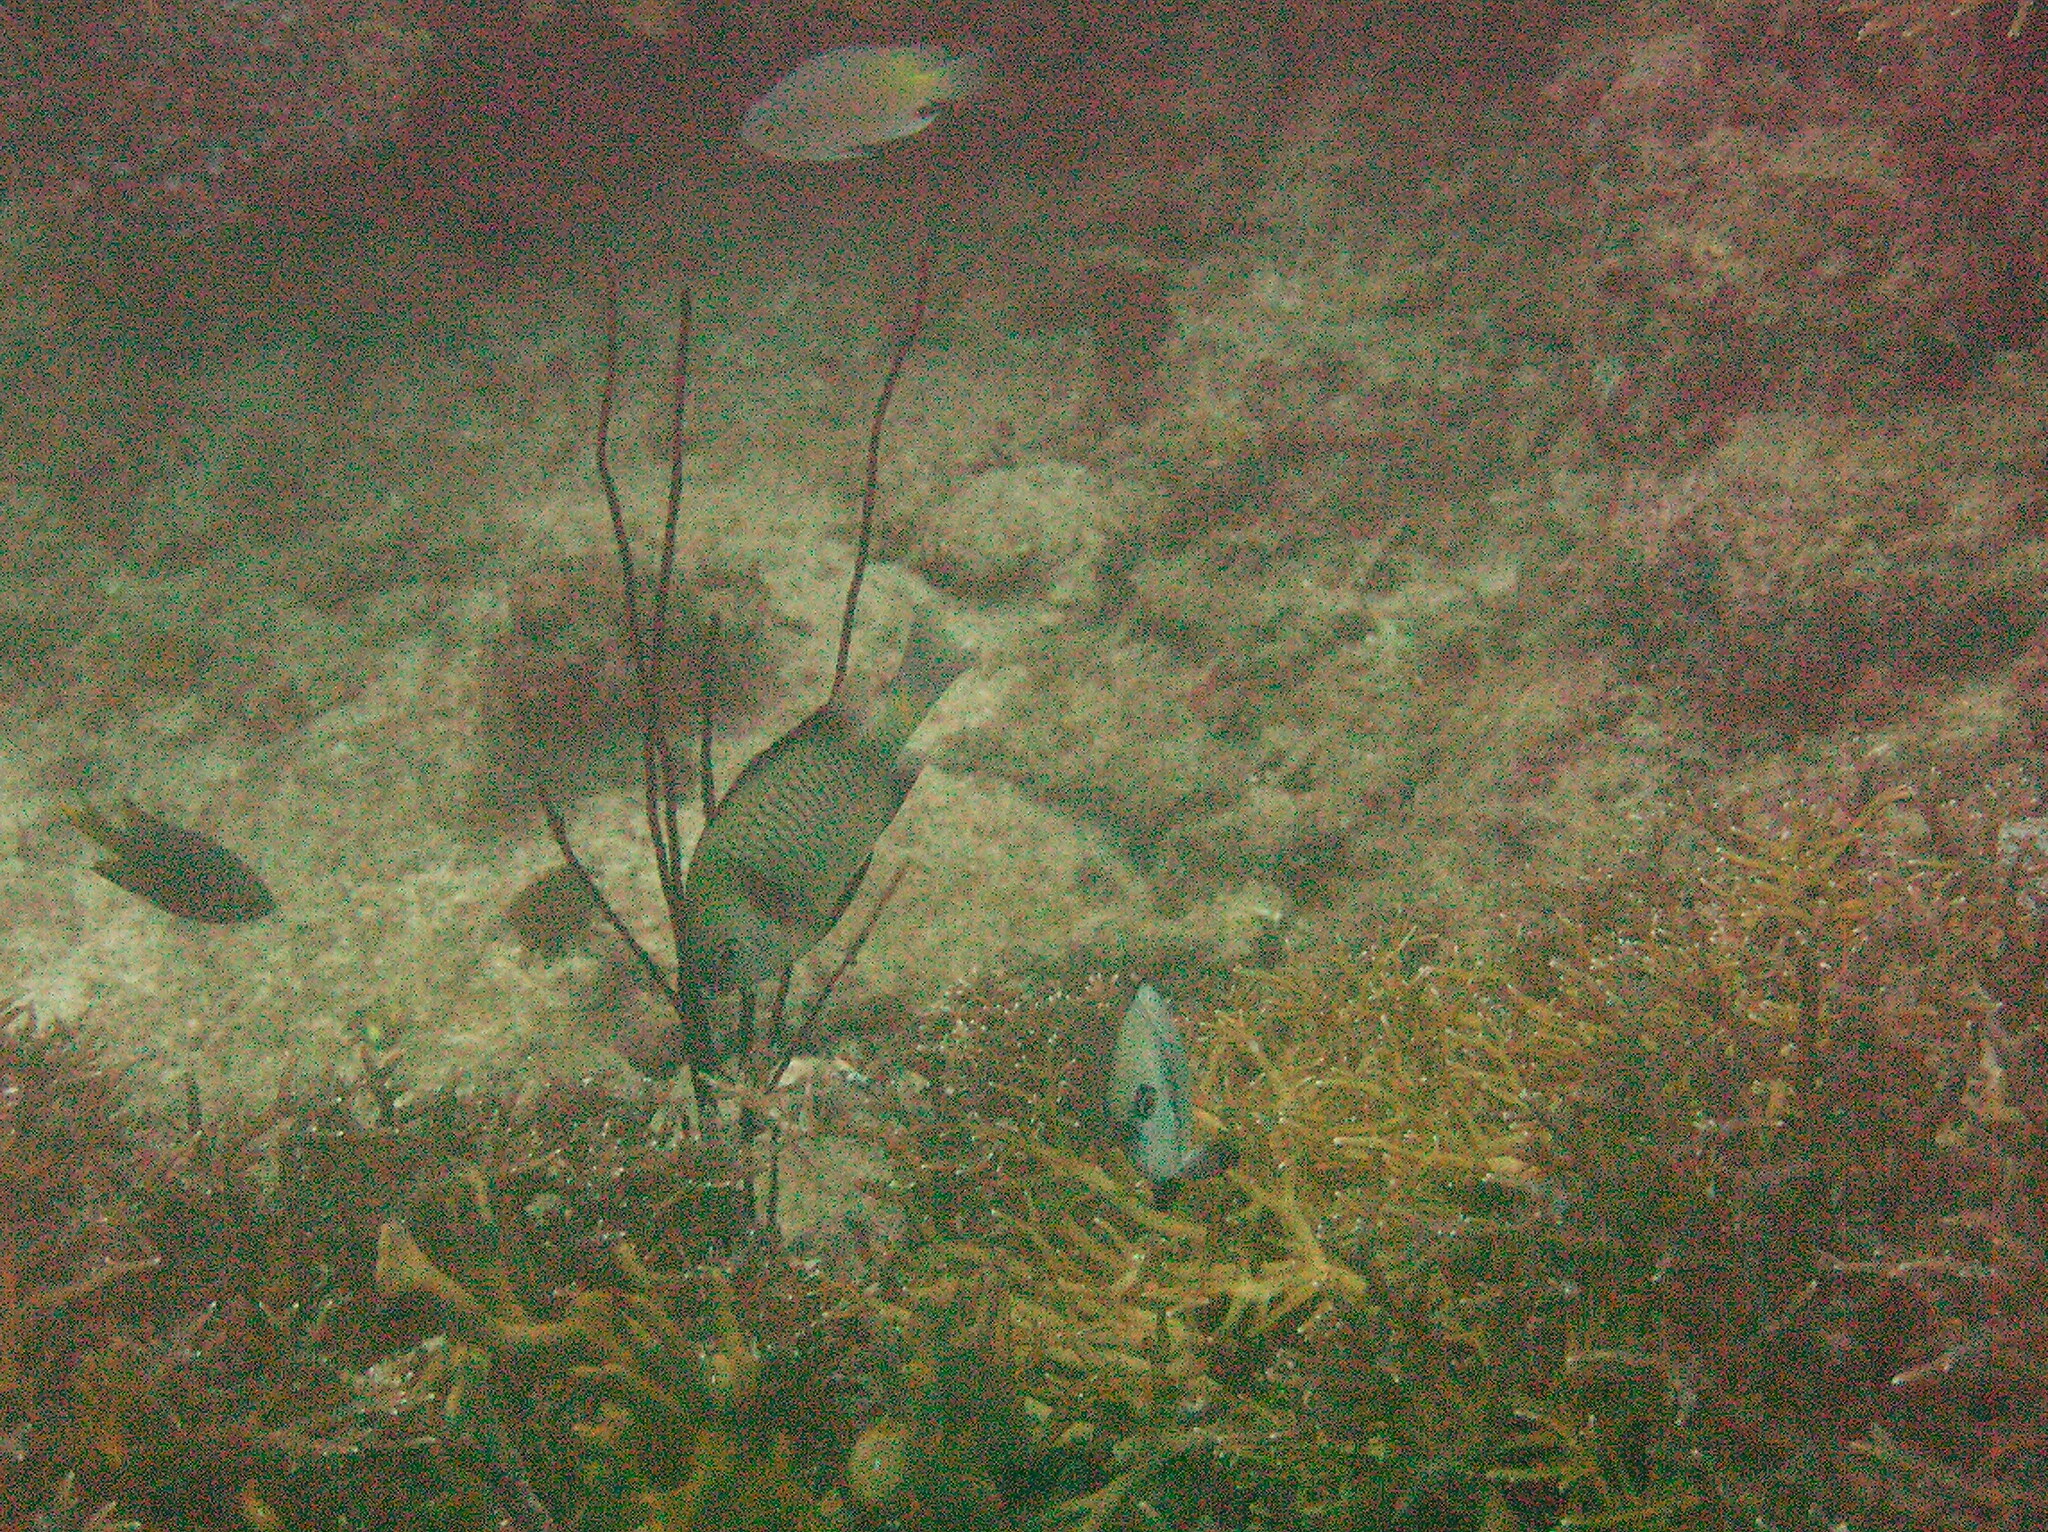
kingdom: Animalia
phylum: Chordata
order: Perciformes
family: Pomacentridae
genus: Dascyllus
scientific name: Dascyllus reticulatus
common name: Reticulated dascyllus
